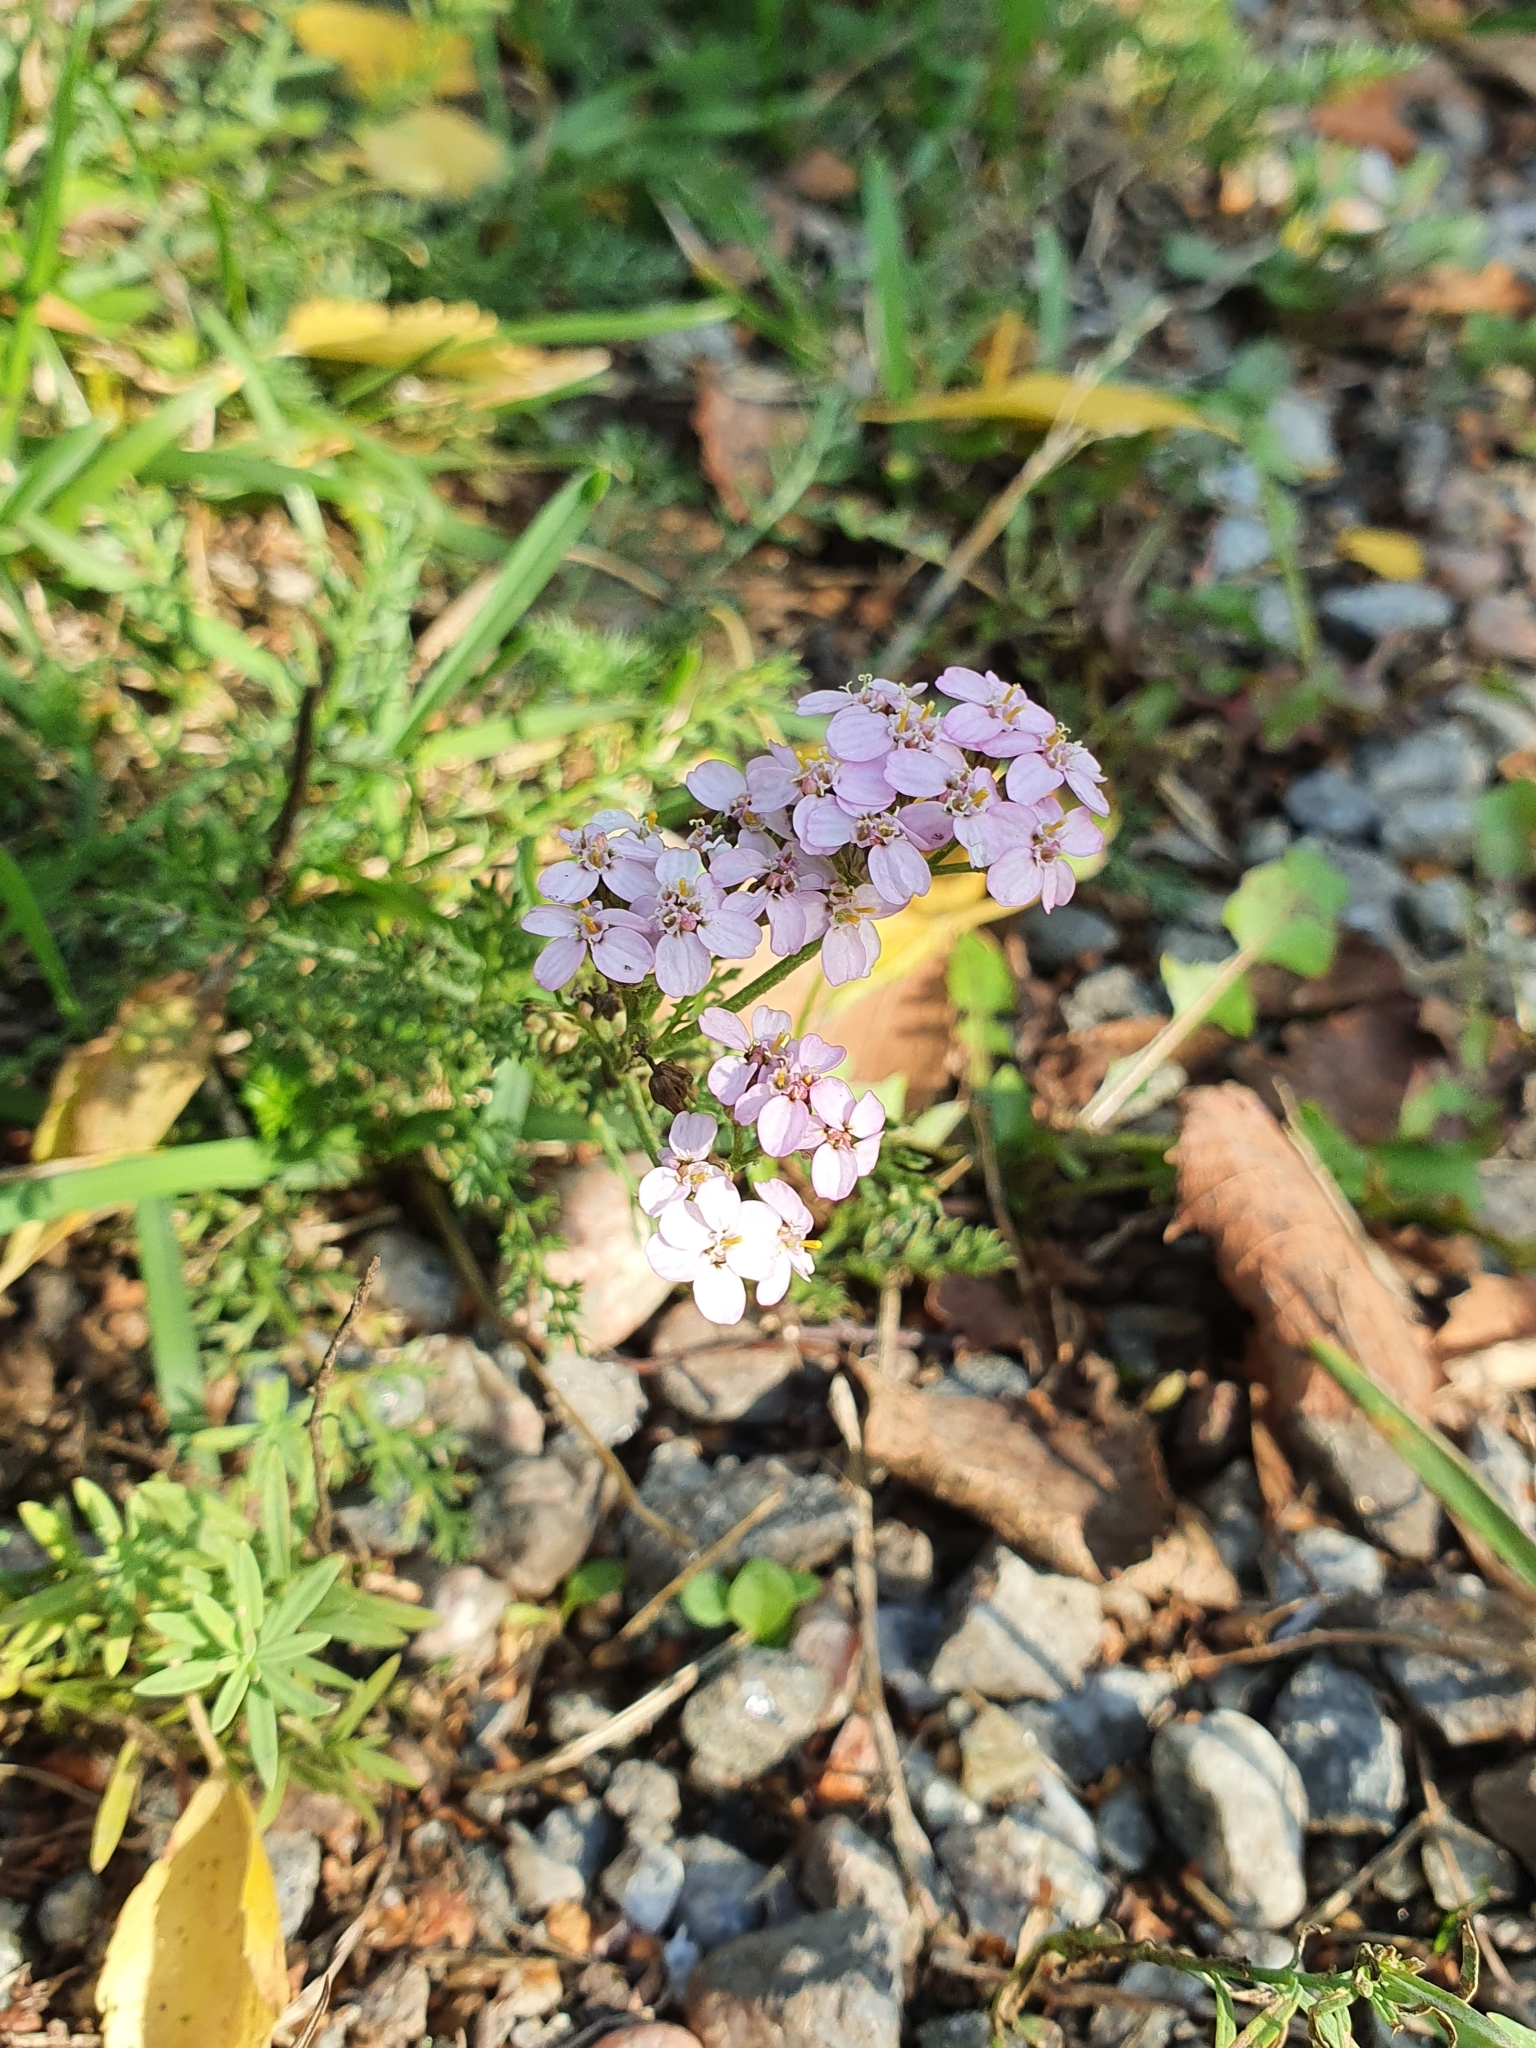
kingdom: Plantae
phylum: Tracheophyta
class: Magnoliopsida
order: Asterales
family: Asteraceae
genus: Achillea
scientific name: Achillea millefolium
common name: Yarrow
